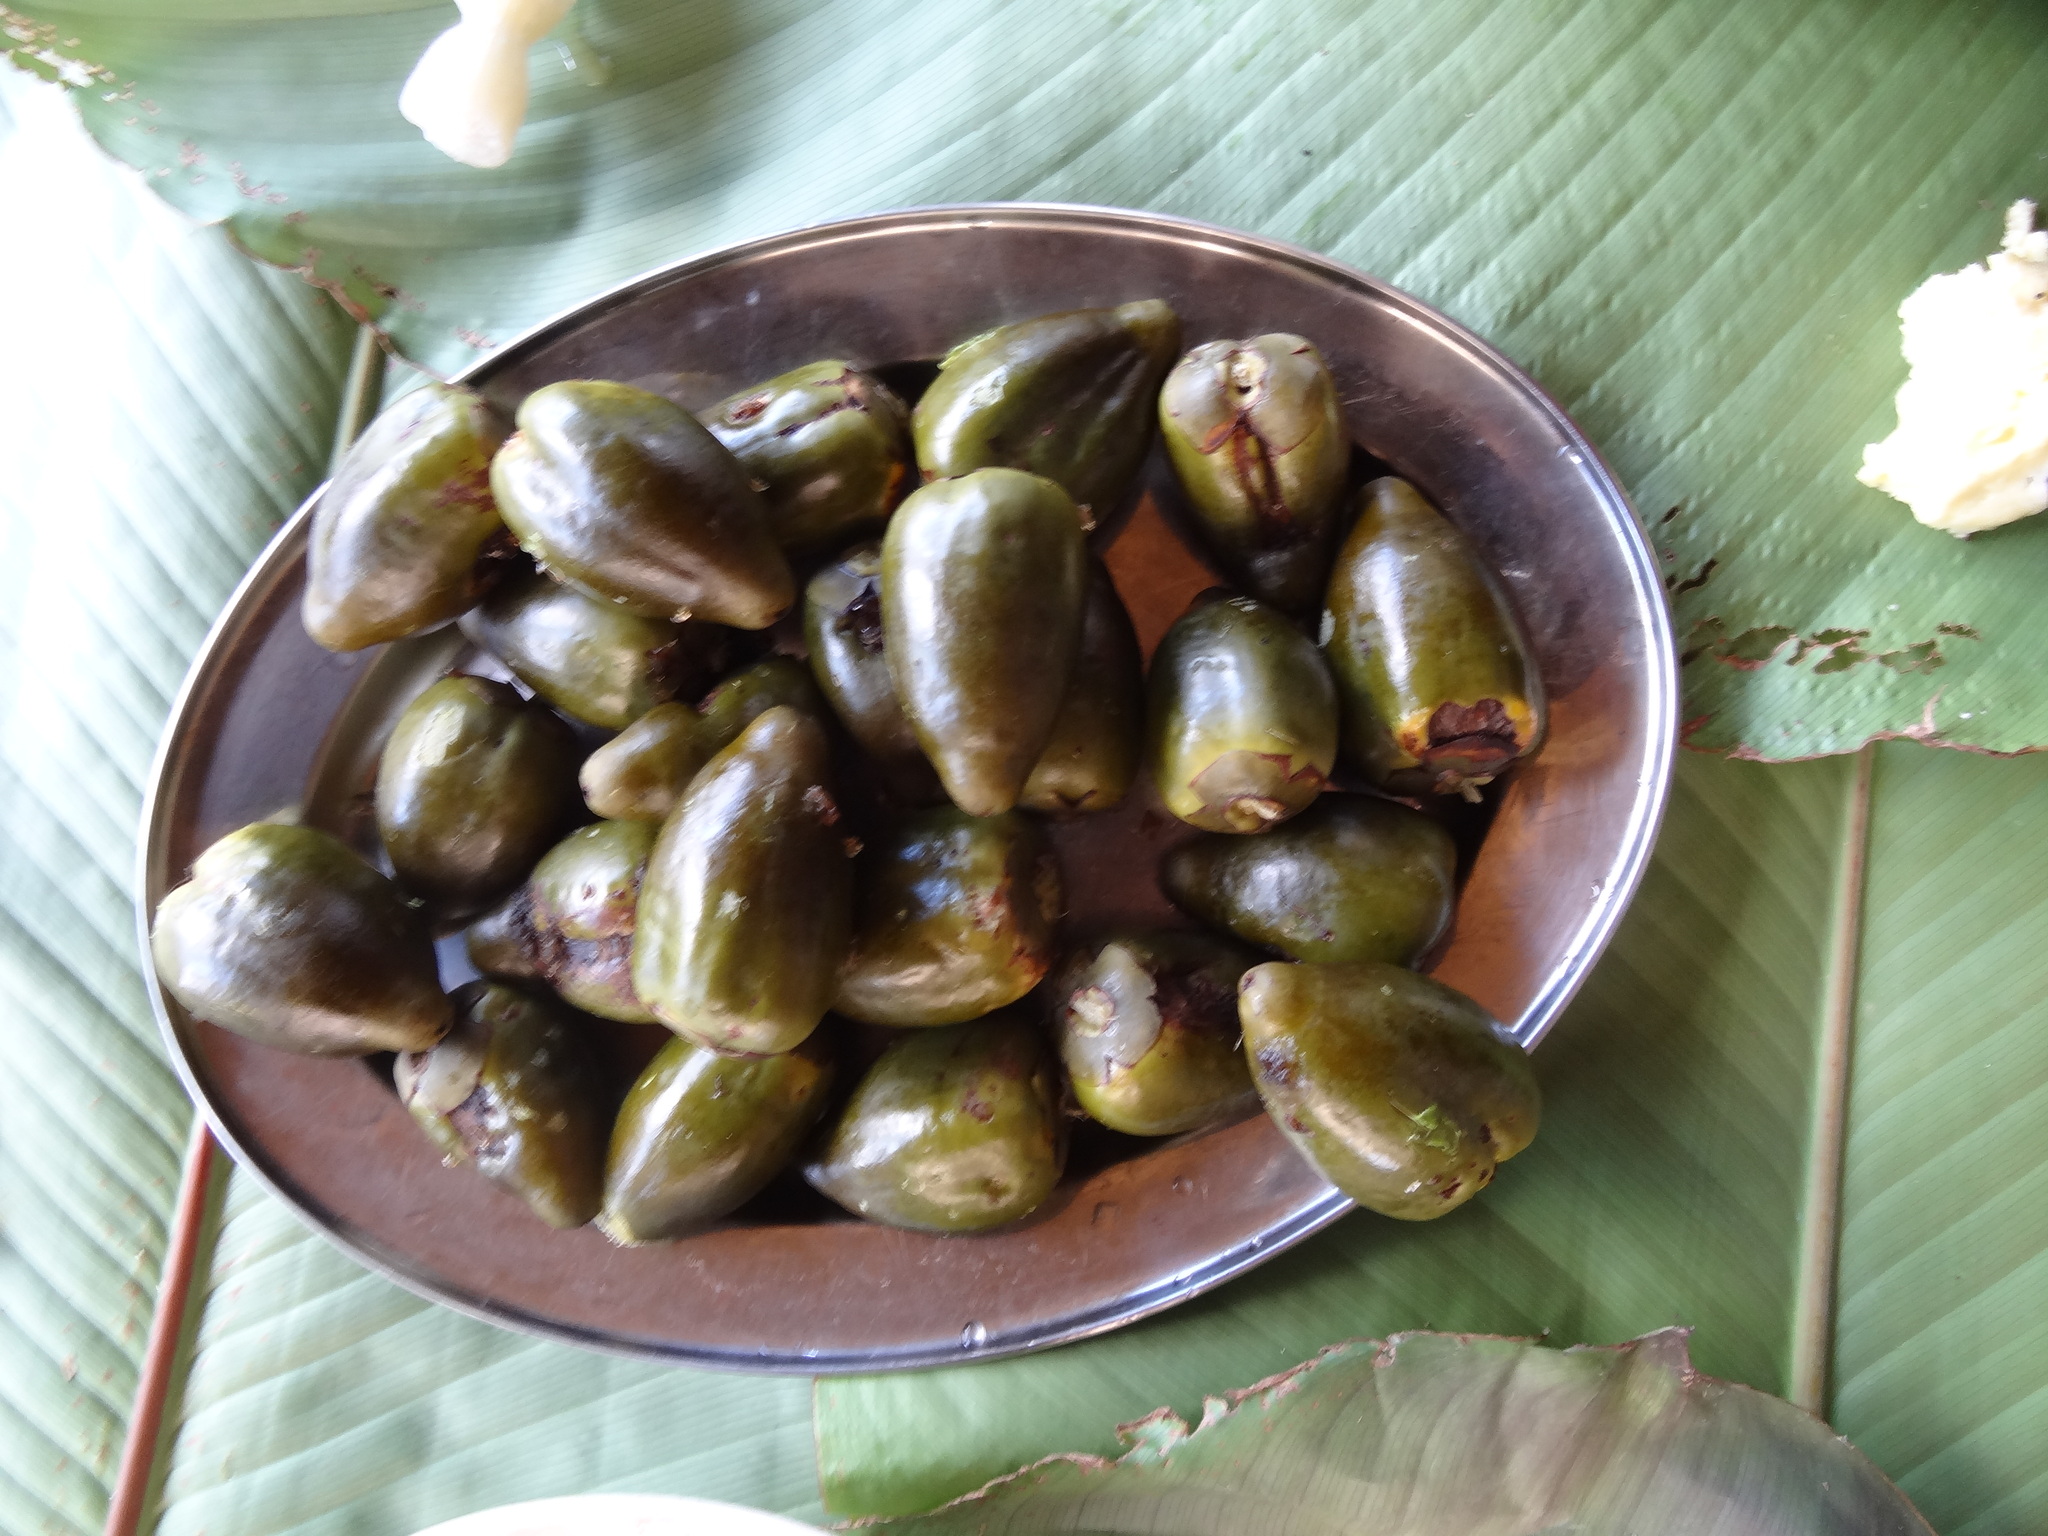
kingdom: Plantae
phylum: Tracheophyta
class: Liliopsida
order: Arecales
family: Arecaceae
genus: Bactris
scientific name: Bactris gasipaes
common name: Peach palm
